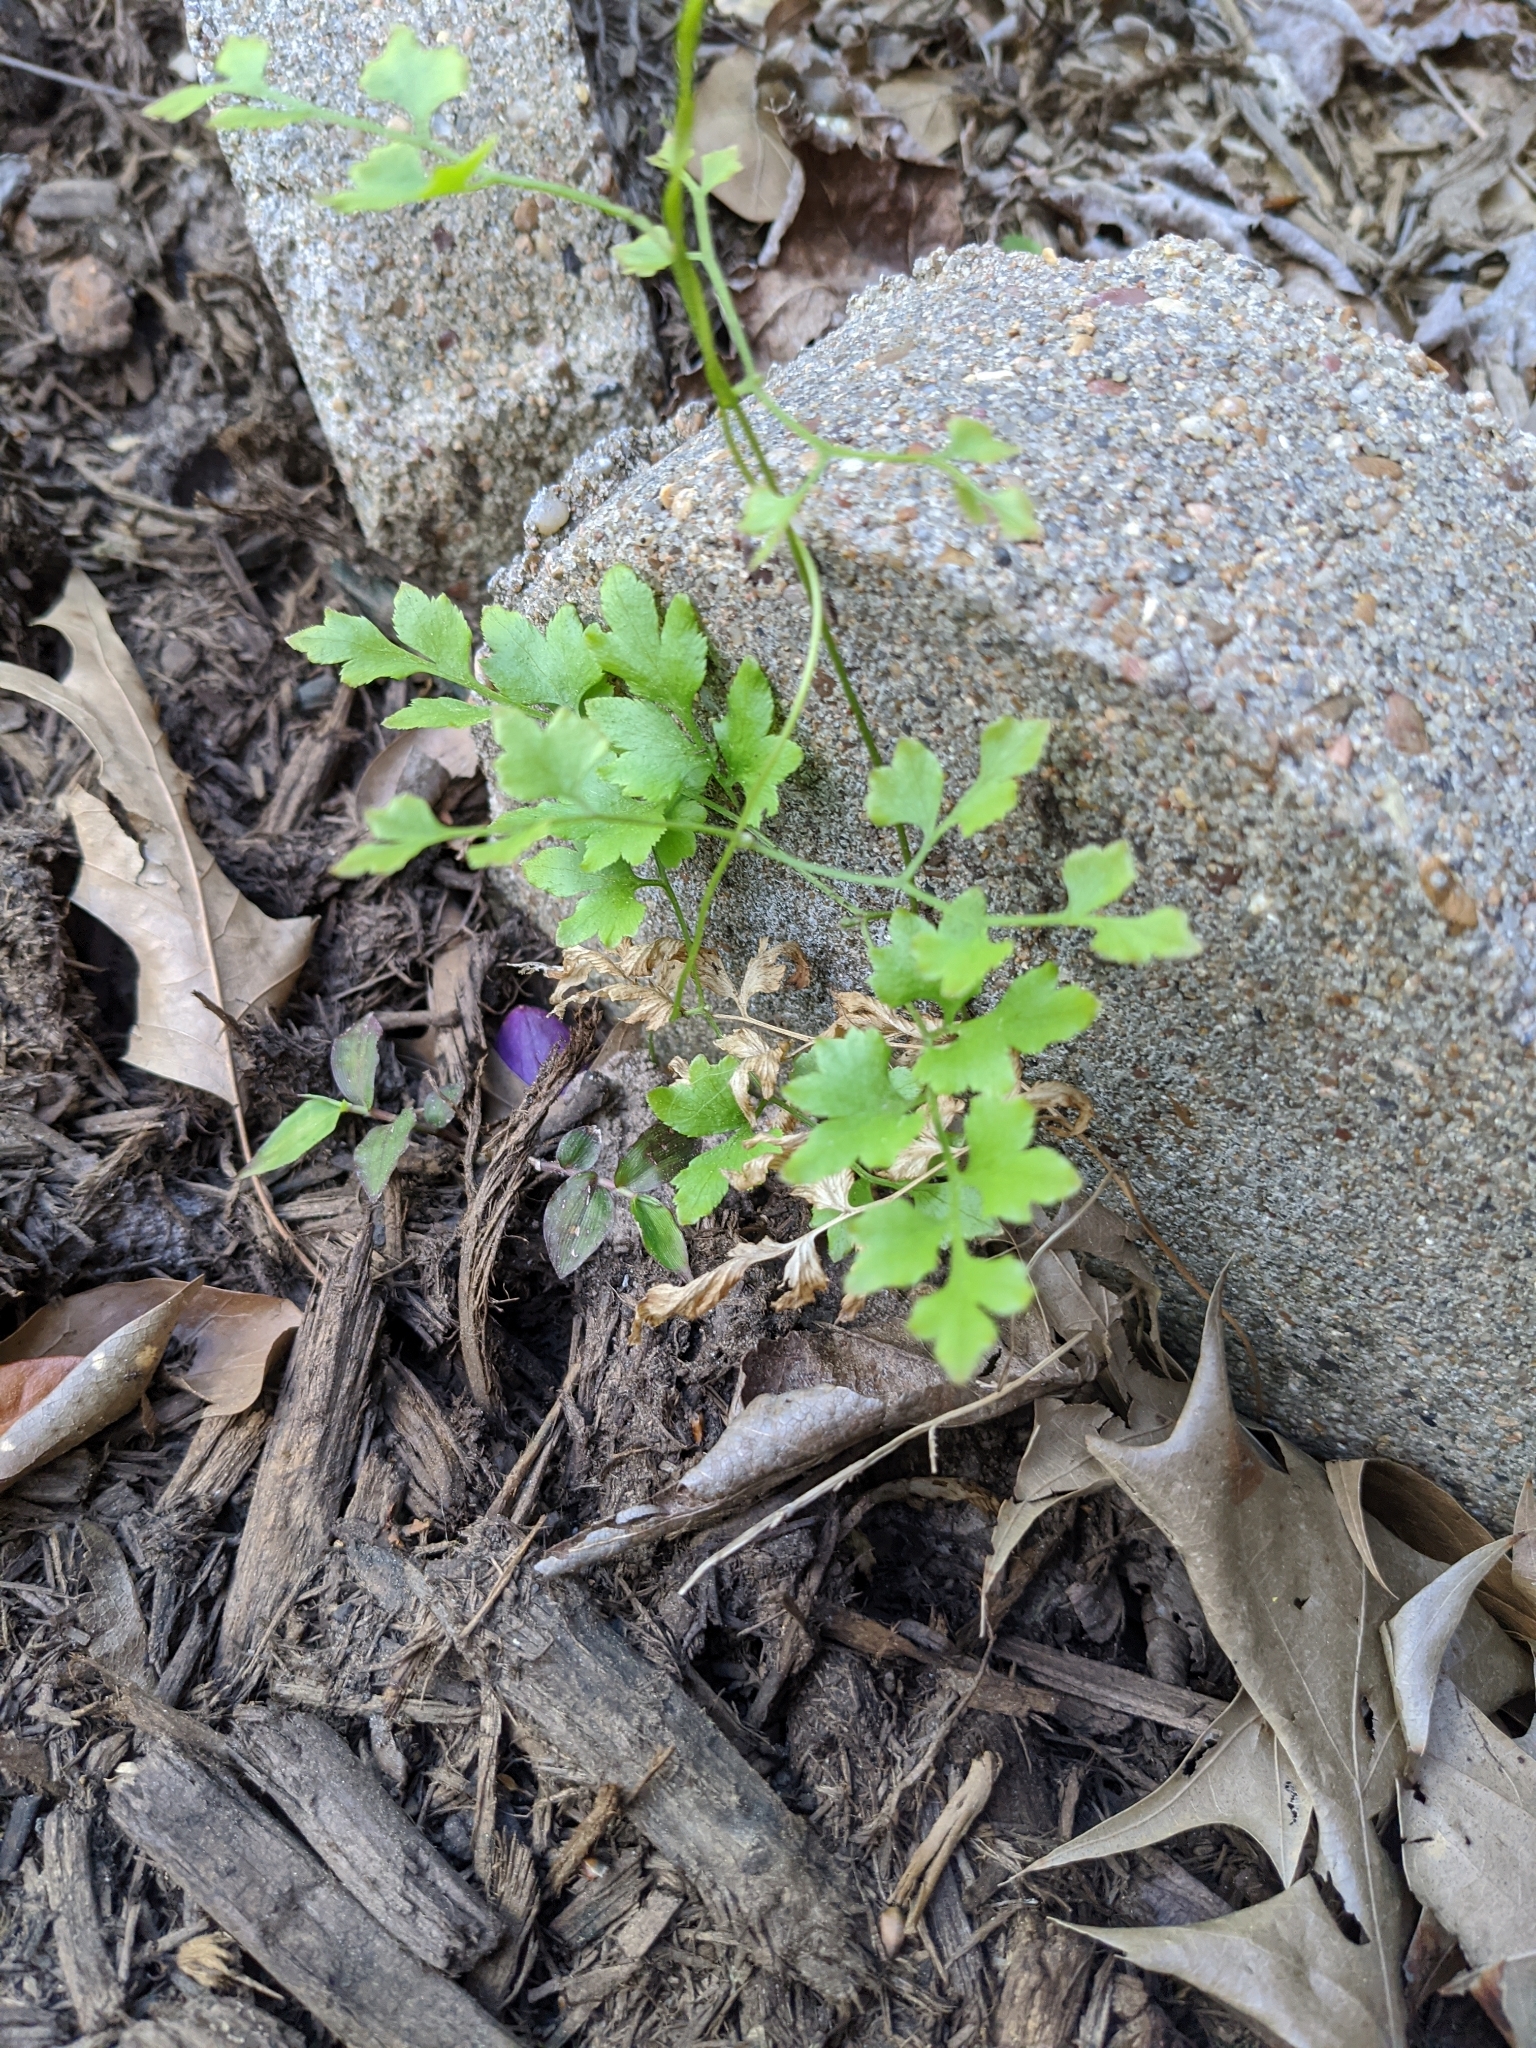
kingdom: Plantae
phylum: Tracheophyta
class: Polypodiopsida
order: Schizaeales
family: Lygodiaceae
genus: Lygodium
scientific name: Lygodium japonicum
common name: Japanese climbing fern
